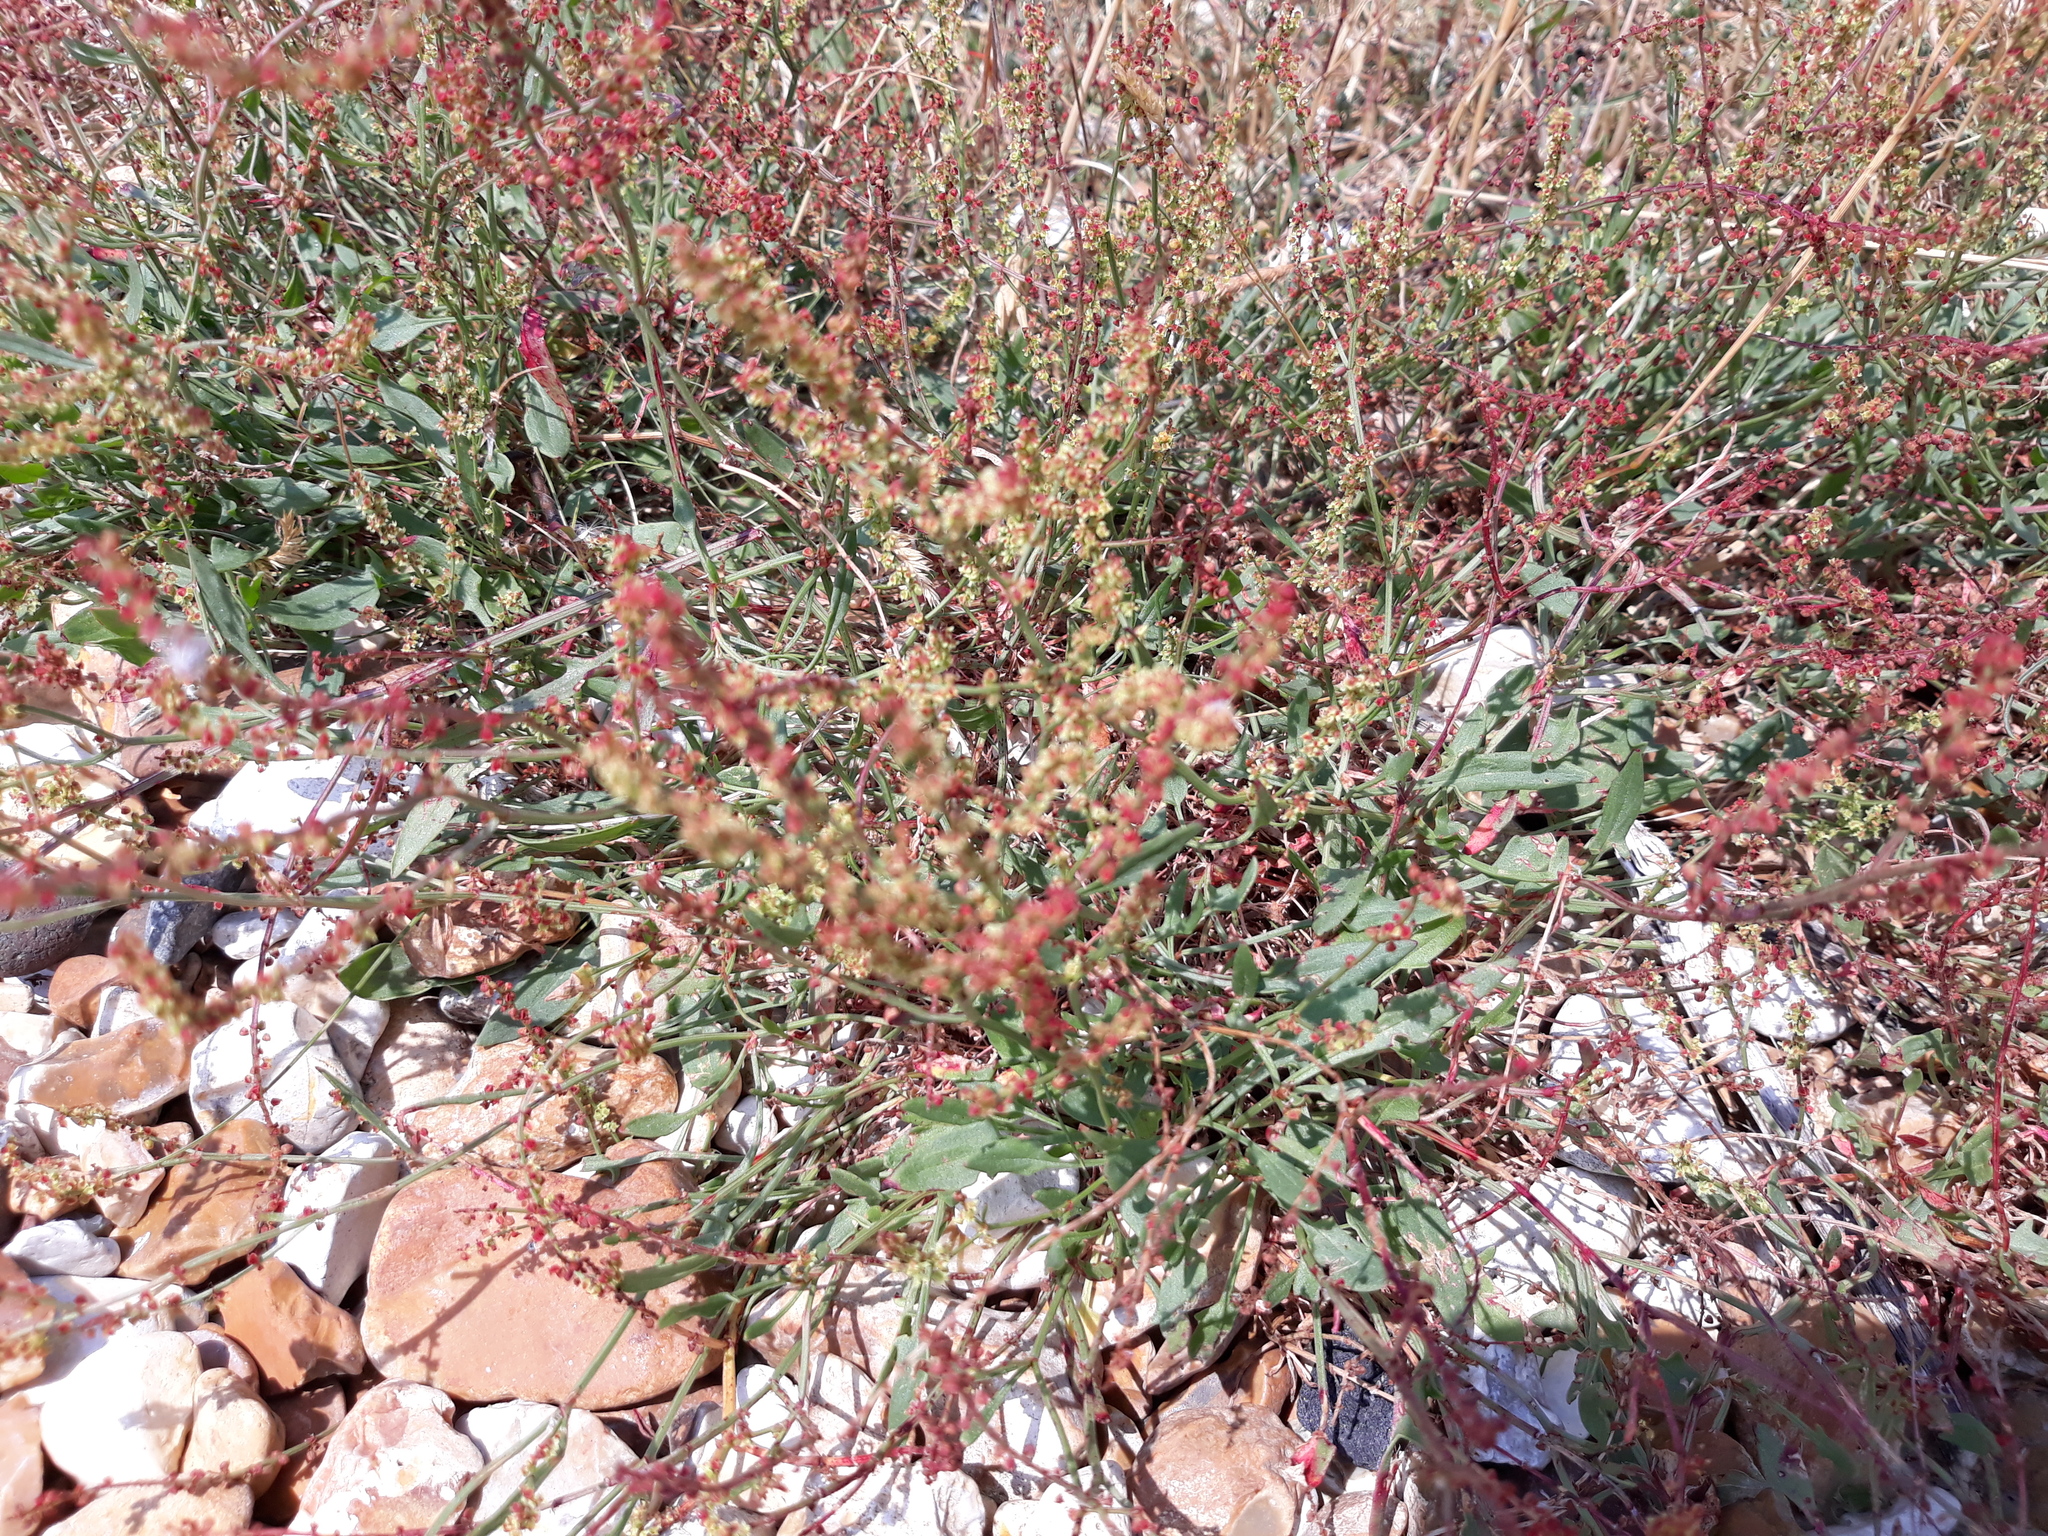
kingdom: Plantae
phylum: Tracheophyta
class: Magnoliopsida
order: Caryophyllales
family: Polygonaceae
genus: Rumex
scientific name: Rumex acetosella
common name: Common sheep sorrel
